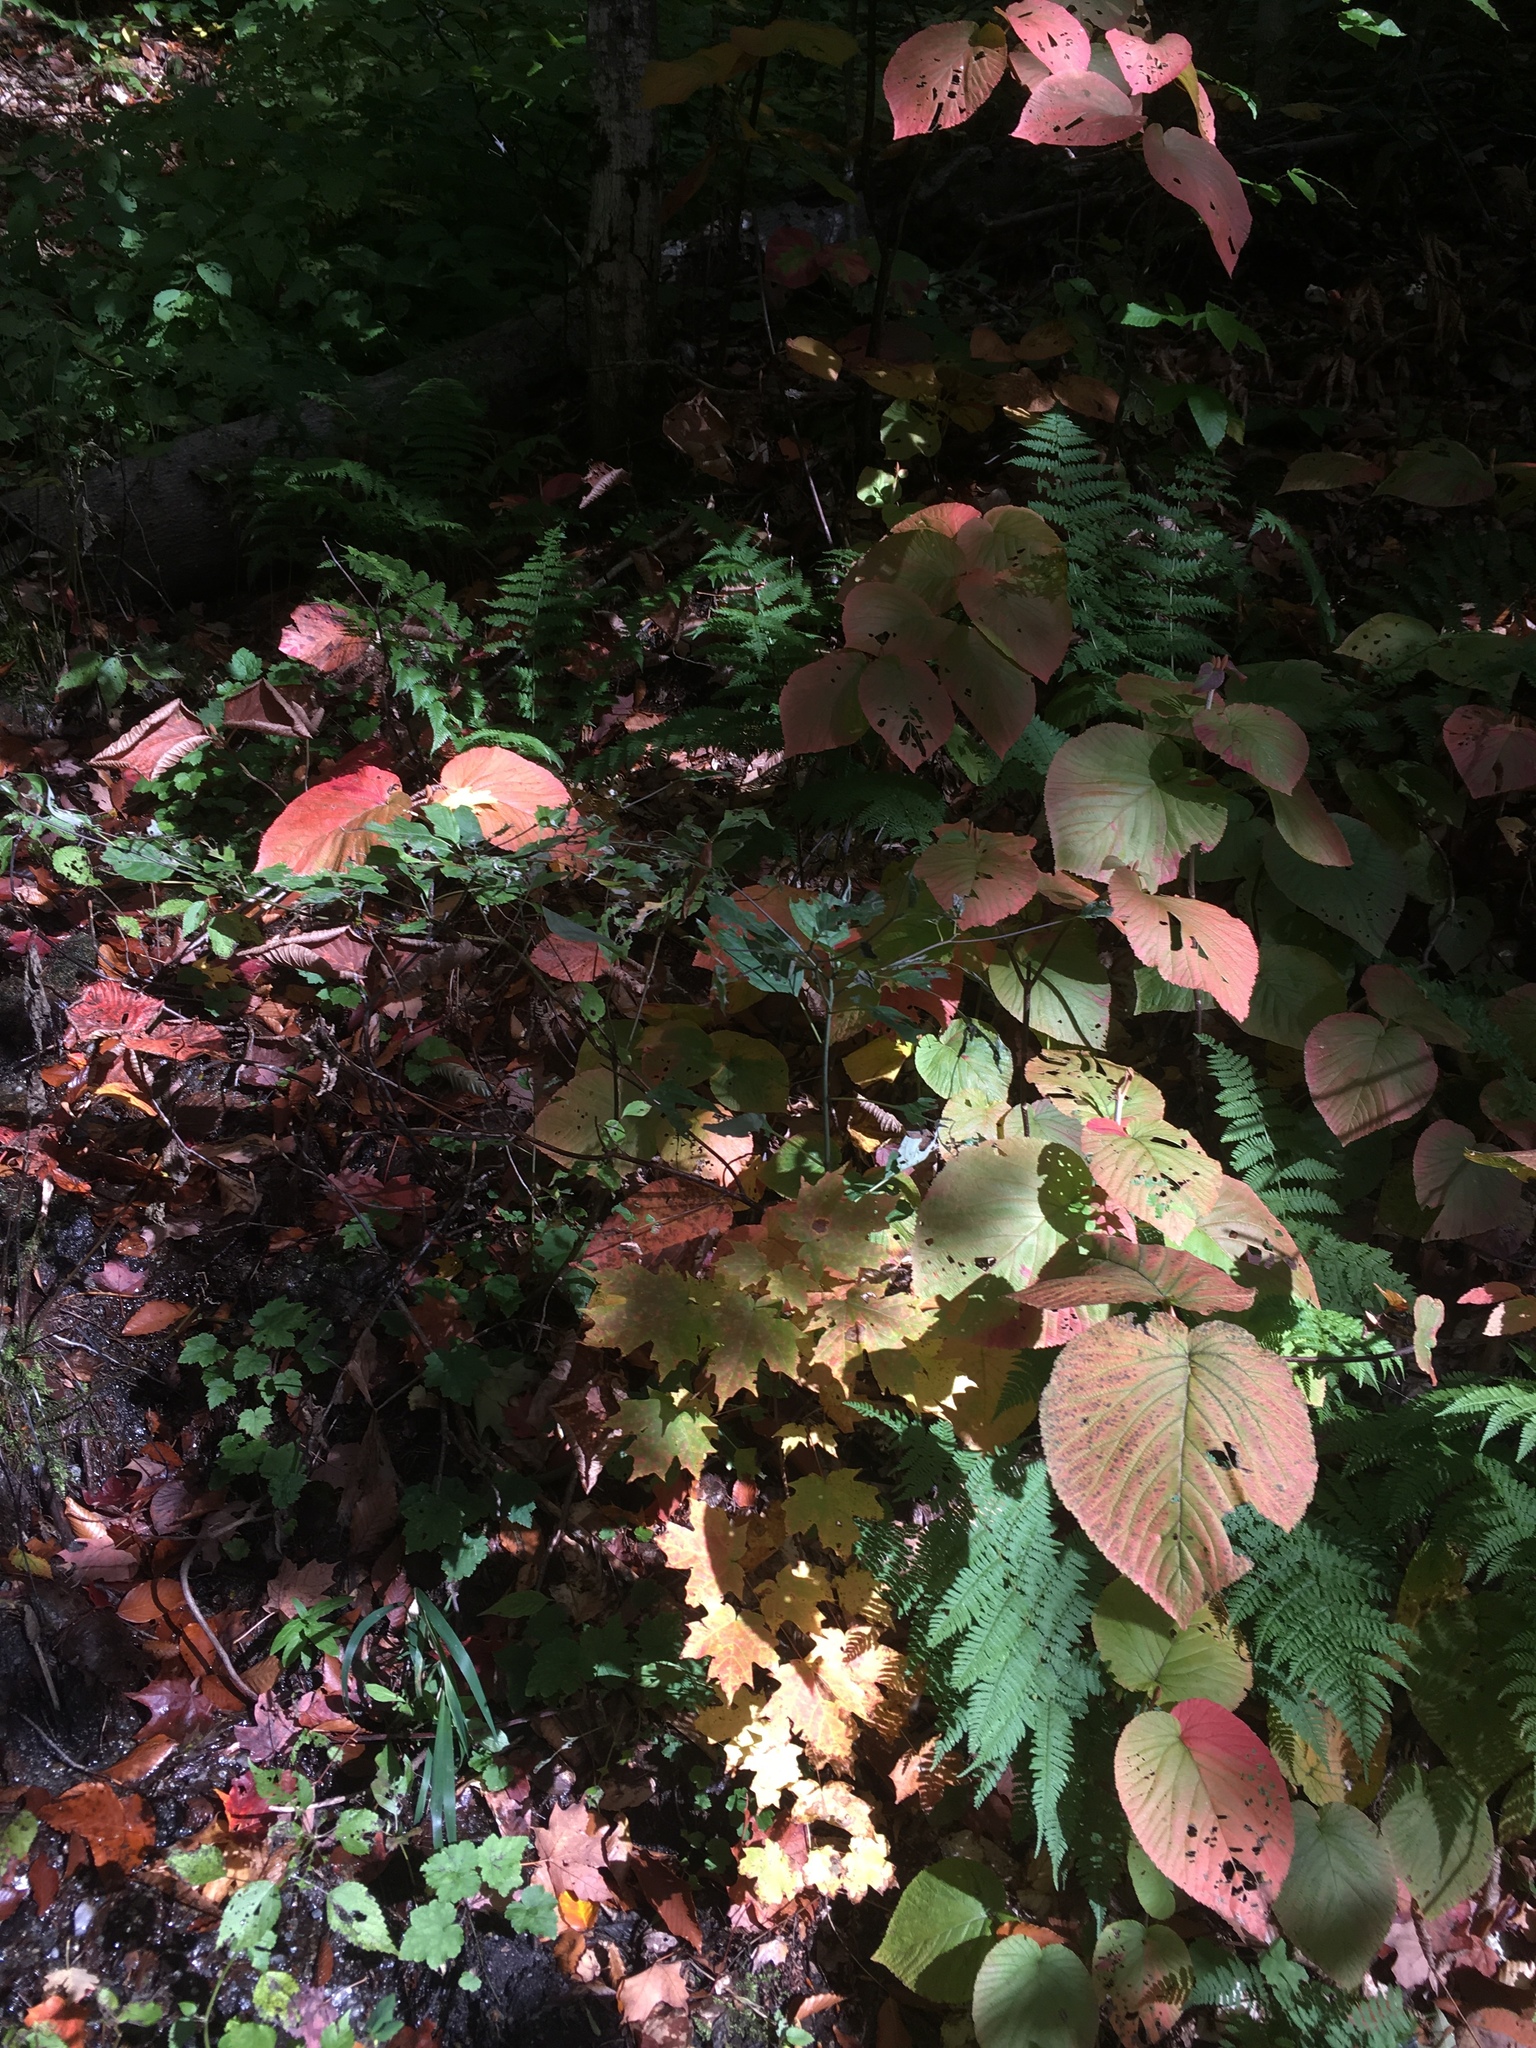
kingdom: Plantae
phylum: Tracheophyta
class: Magnoliopsida
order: Dipsacales
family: Viburnaceae
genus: Viburnum
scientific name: Viburnum lantanoides
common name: Hobblebush
